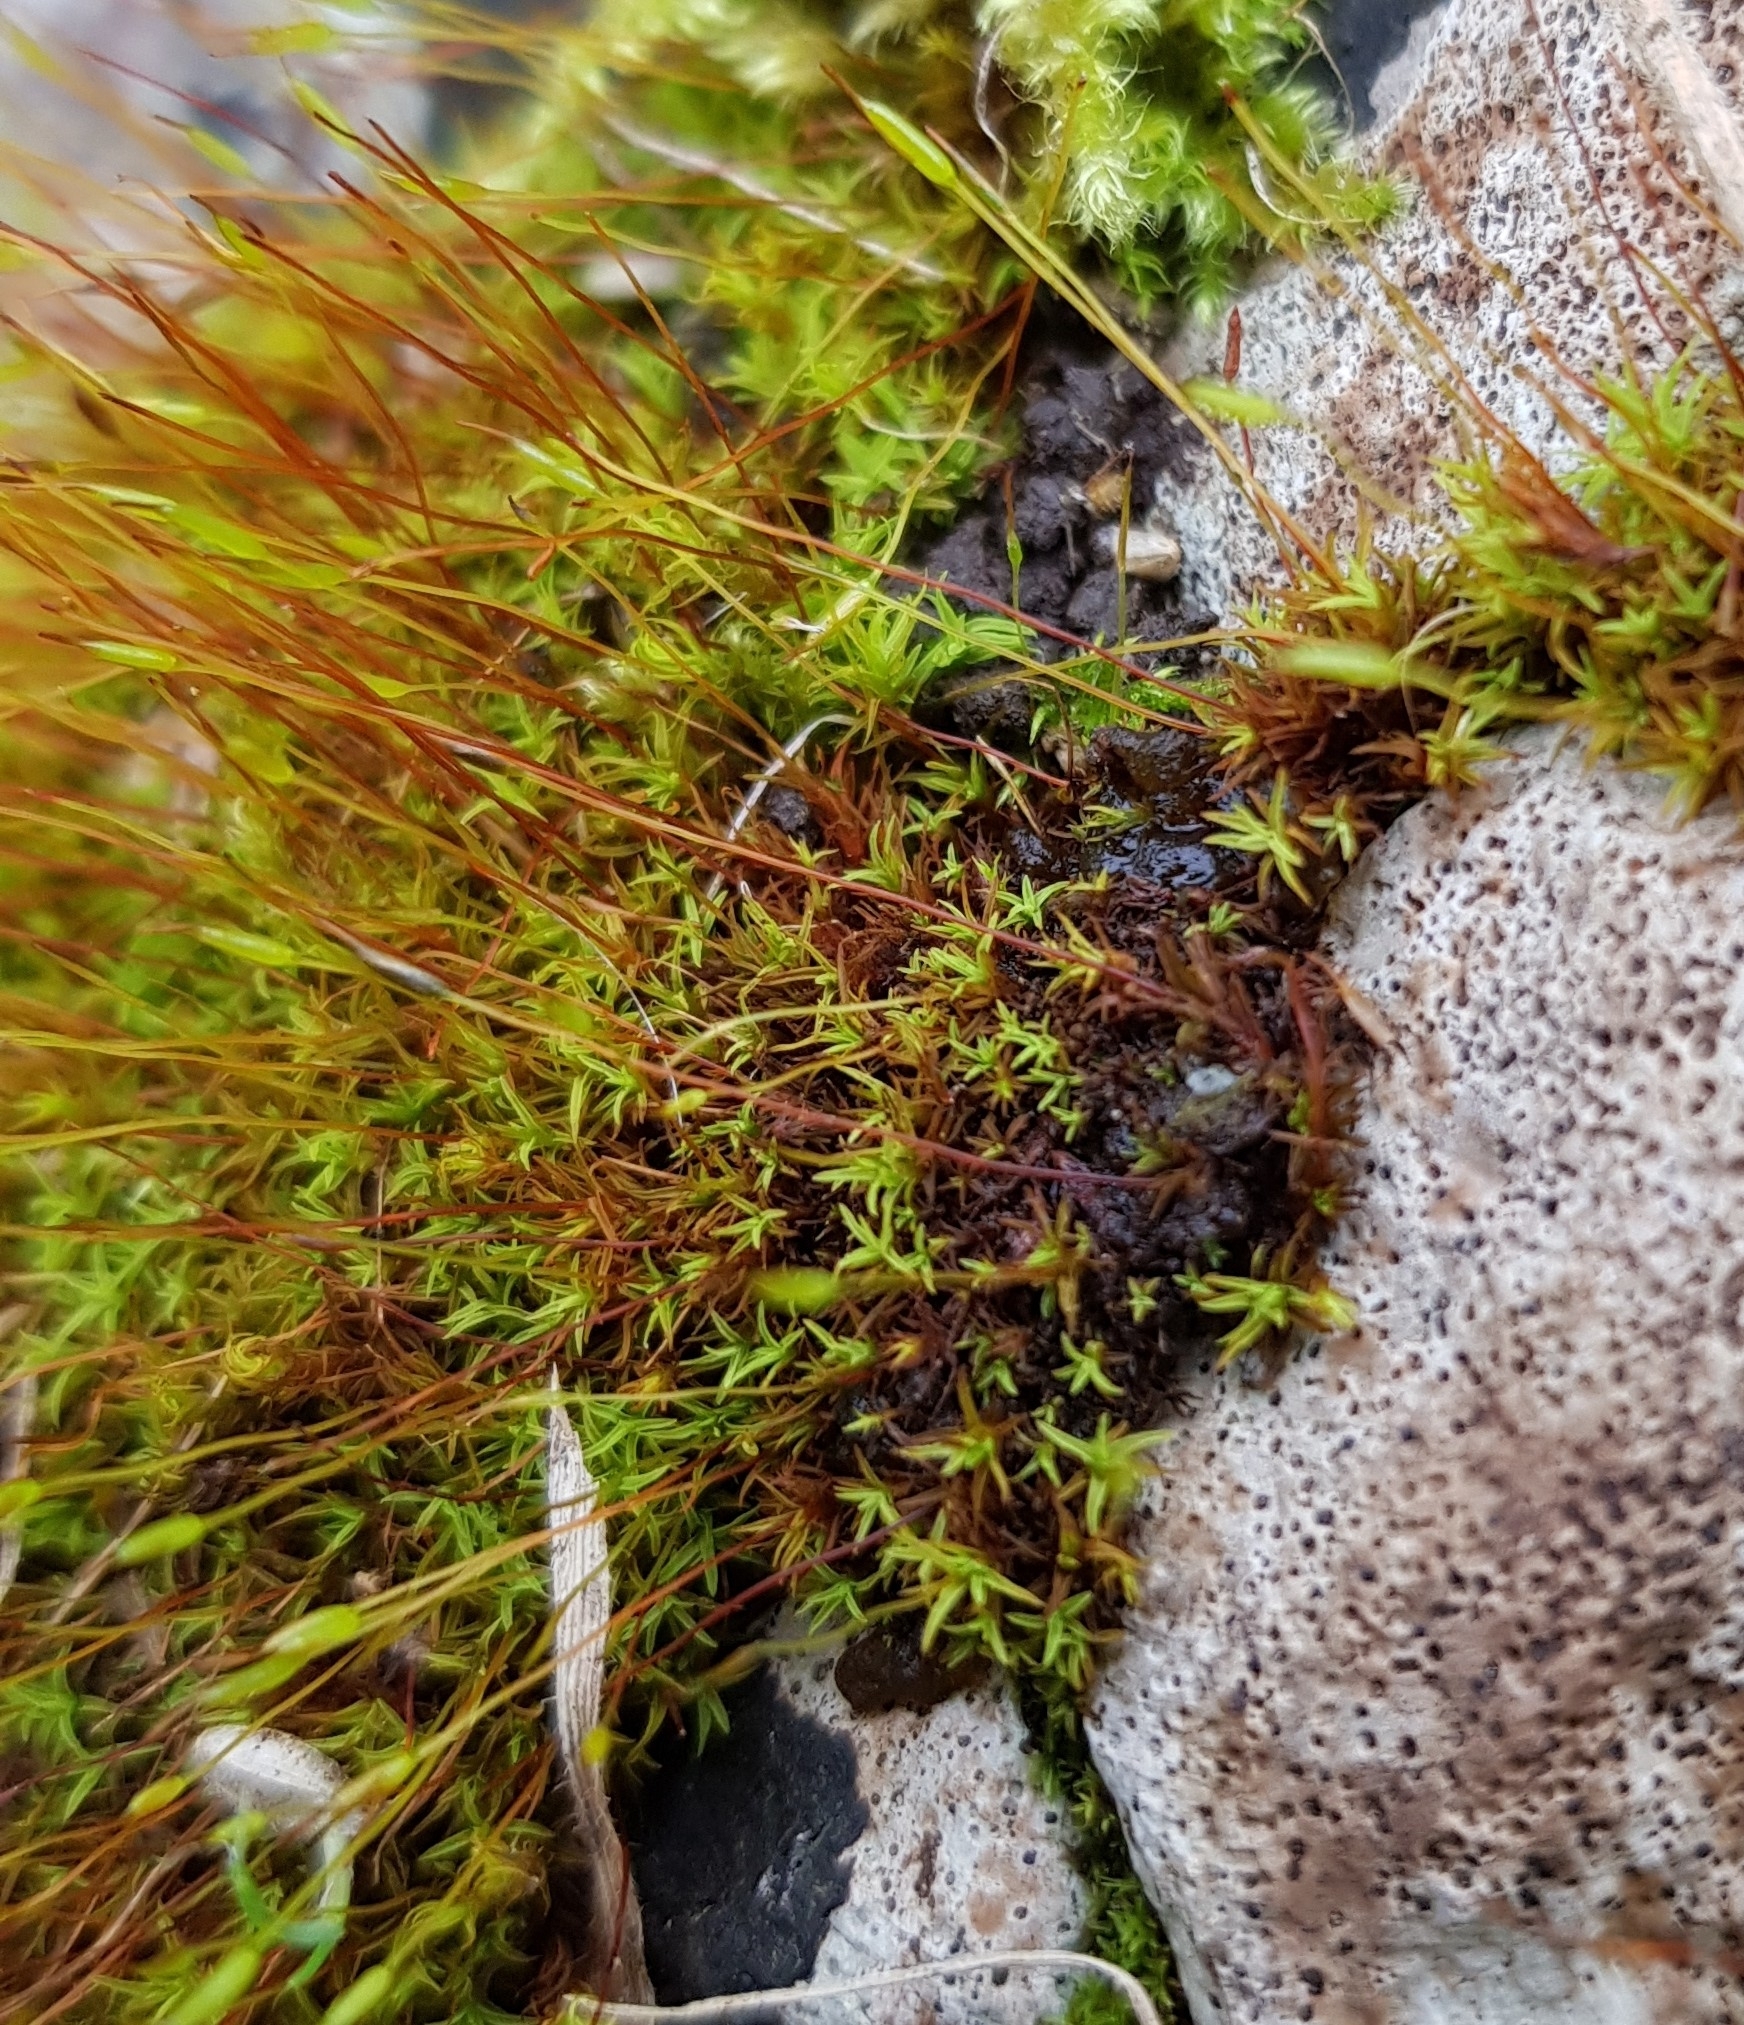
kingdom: Plantae
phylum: Bryophyta
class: Bryopsida
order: Pottiales
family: Pottiaceae
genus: Bryoerythrophyllum
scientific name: Bryoerythrophyllum recurvirostrum
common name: Red beard moss
